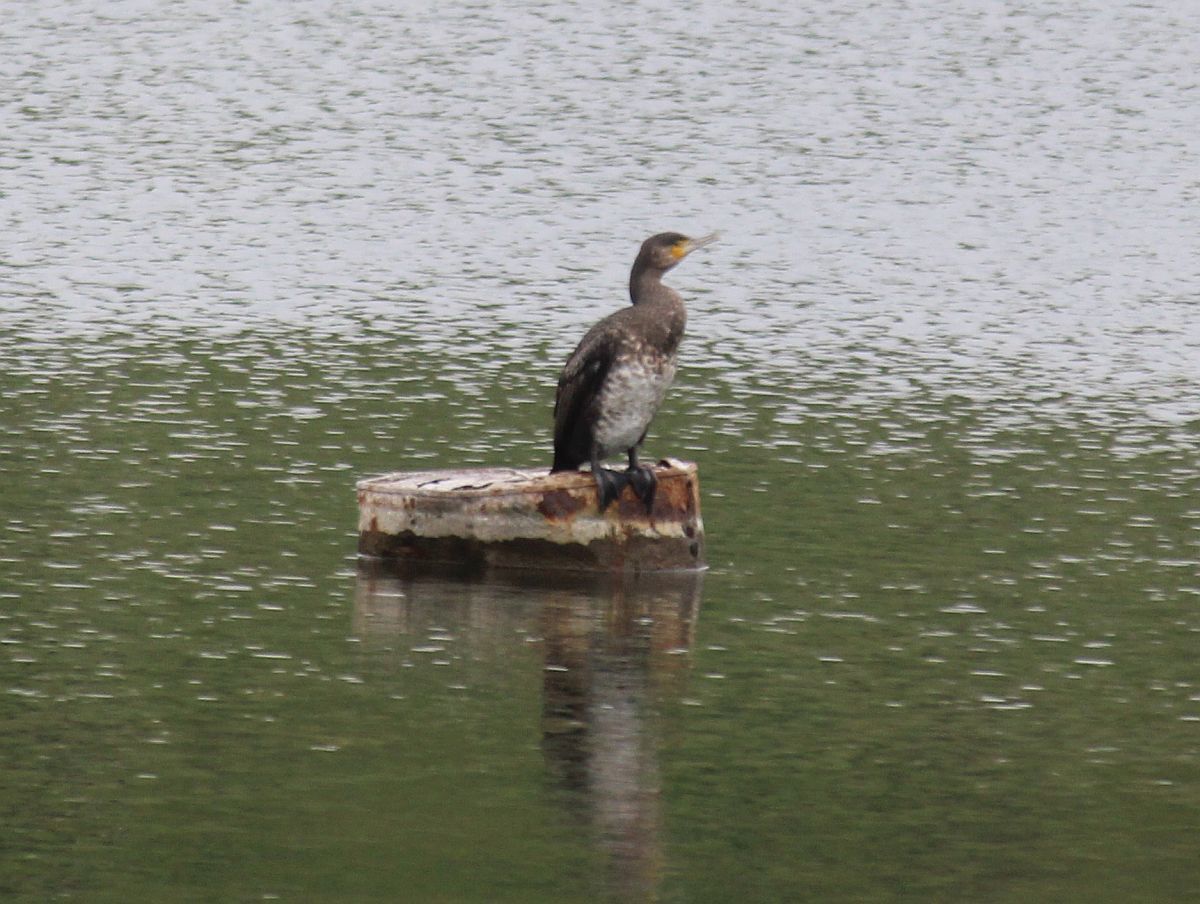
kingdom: Animalia
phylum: Chordata
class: Aves
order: Suliformes
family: Phalacrocoracidae
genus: Phalacrocorax
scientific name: Phalacrocorax carbo
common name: Great cormorant
